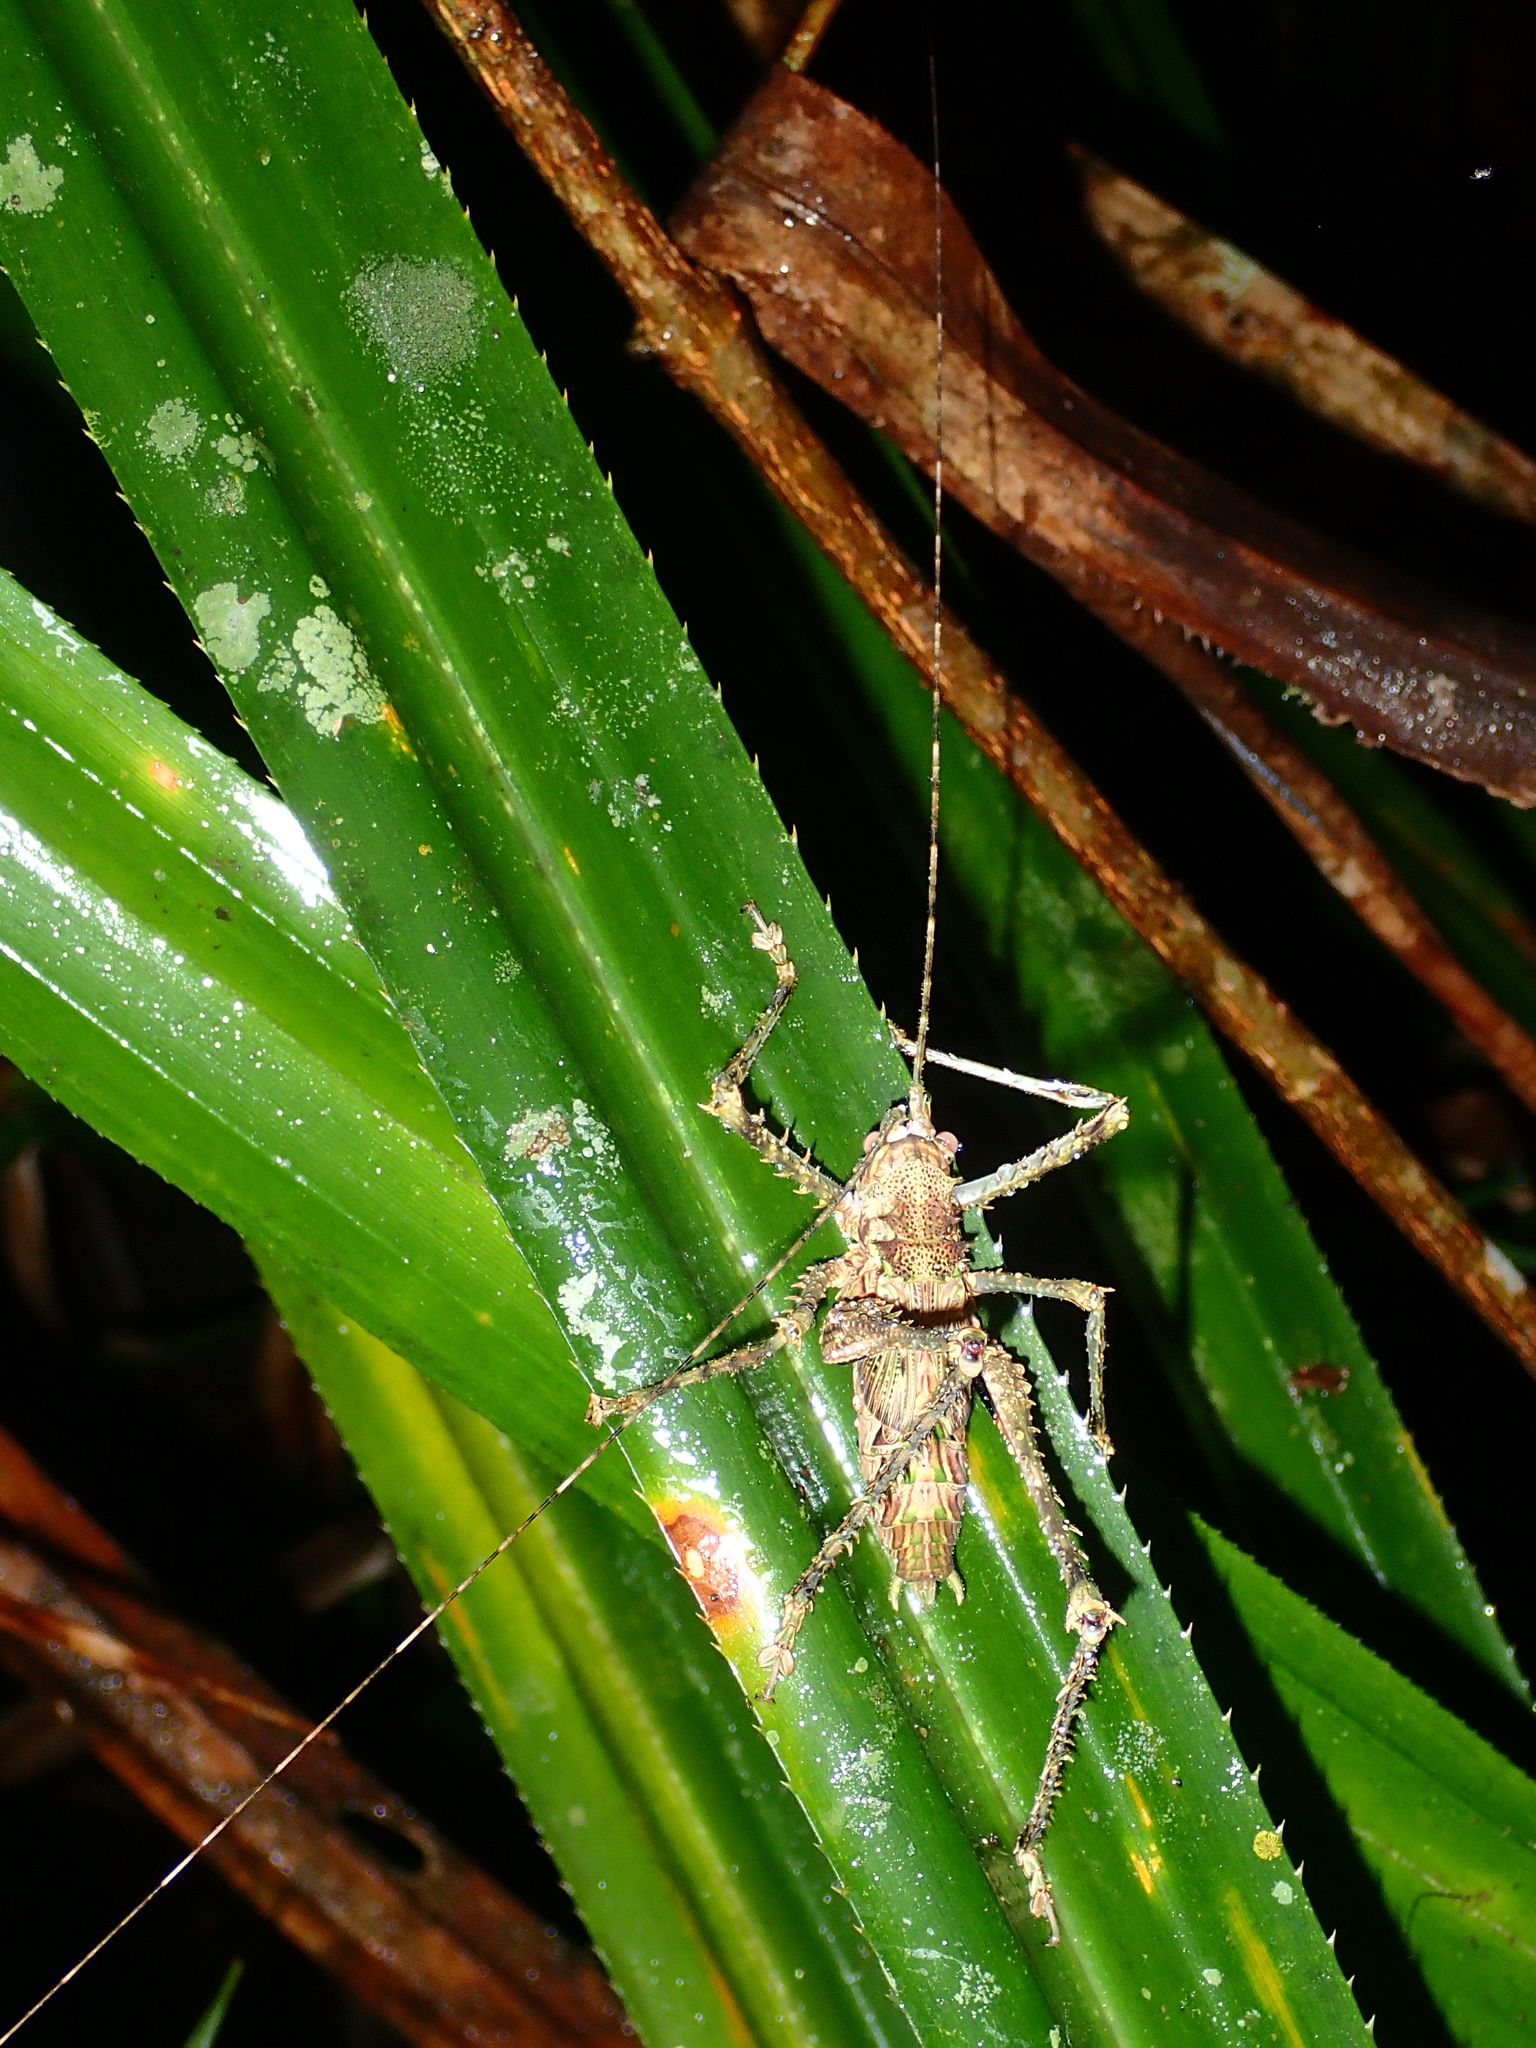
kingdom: Animalia
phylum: Arthropoda
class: Insecta
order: Orthoptera
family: Tettigoniidae
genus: Phricta
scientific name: Phricta spinosa
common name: Giant spiny forest katydid
